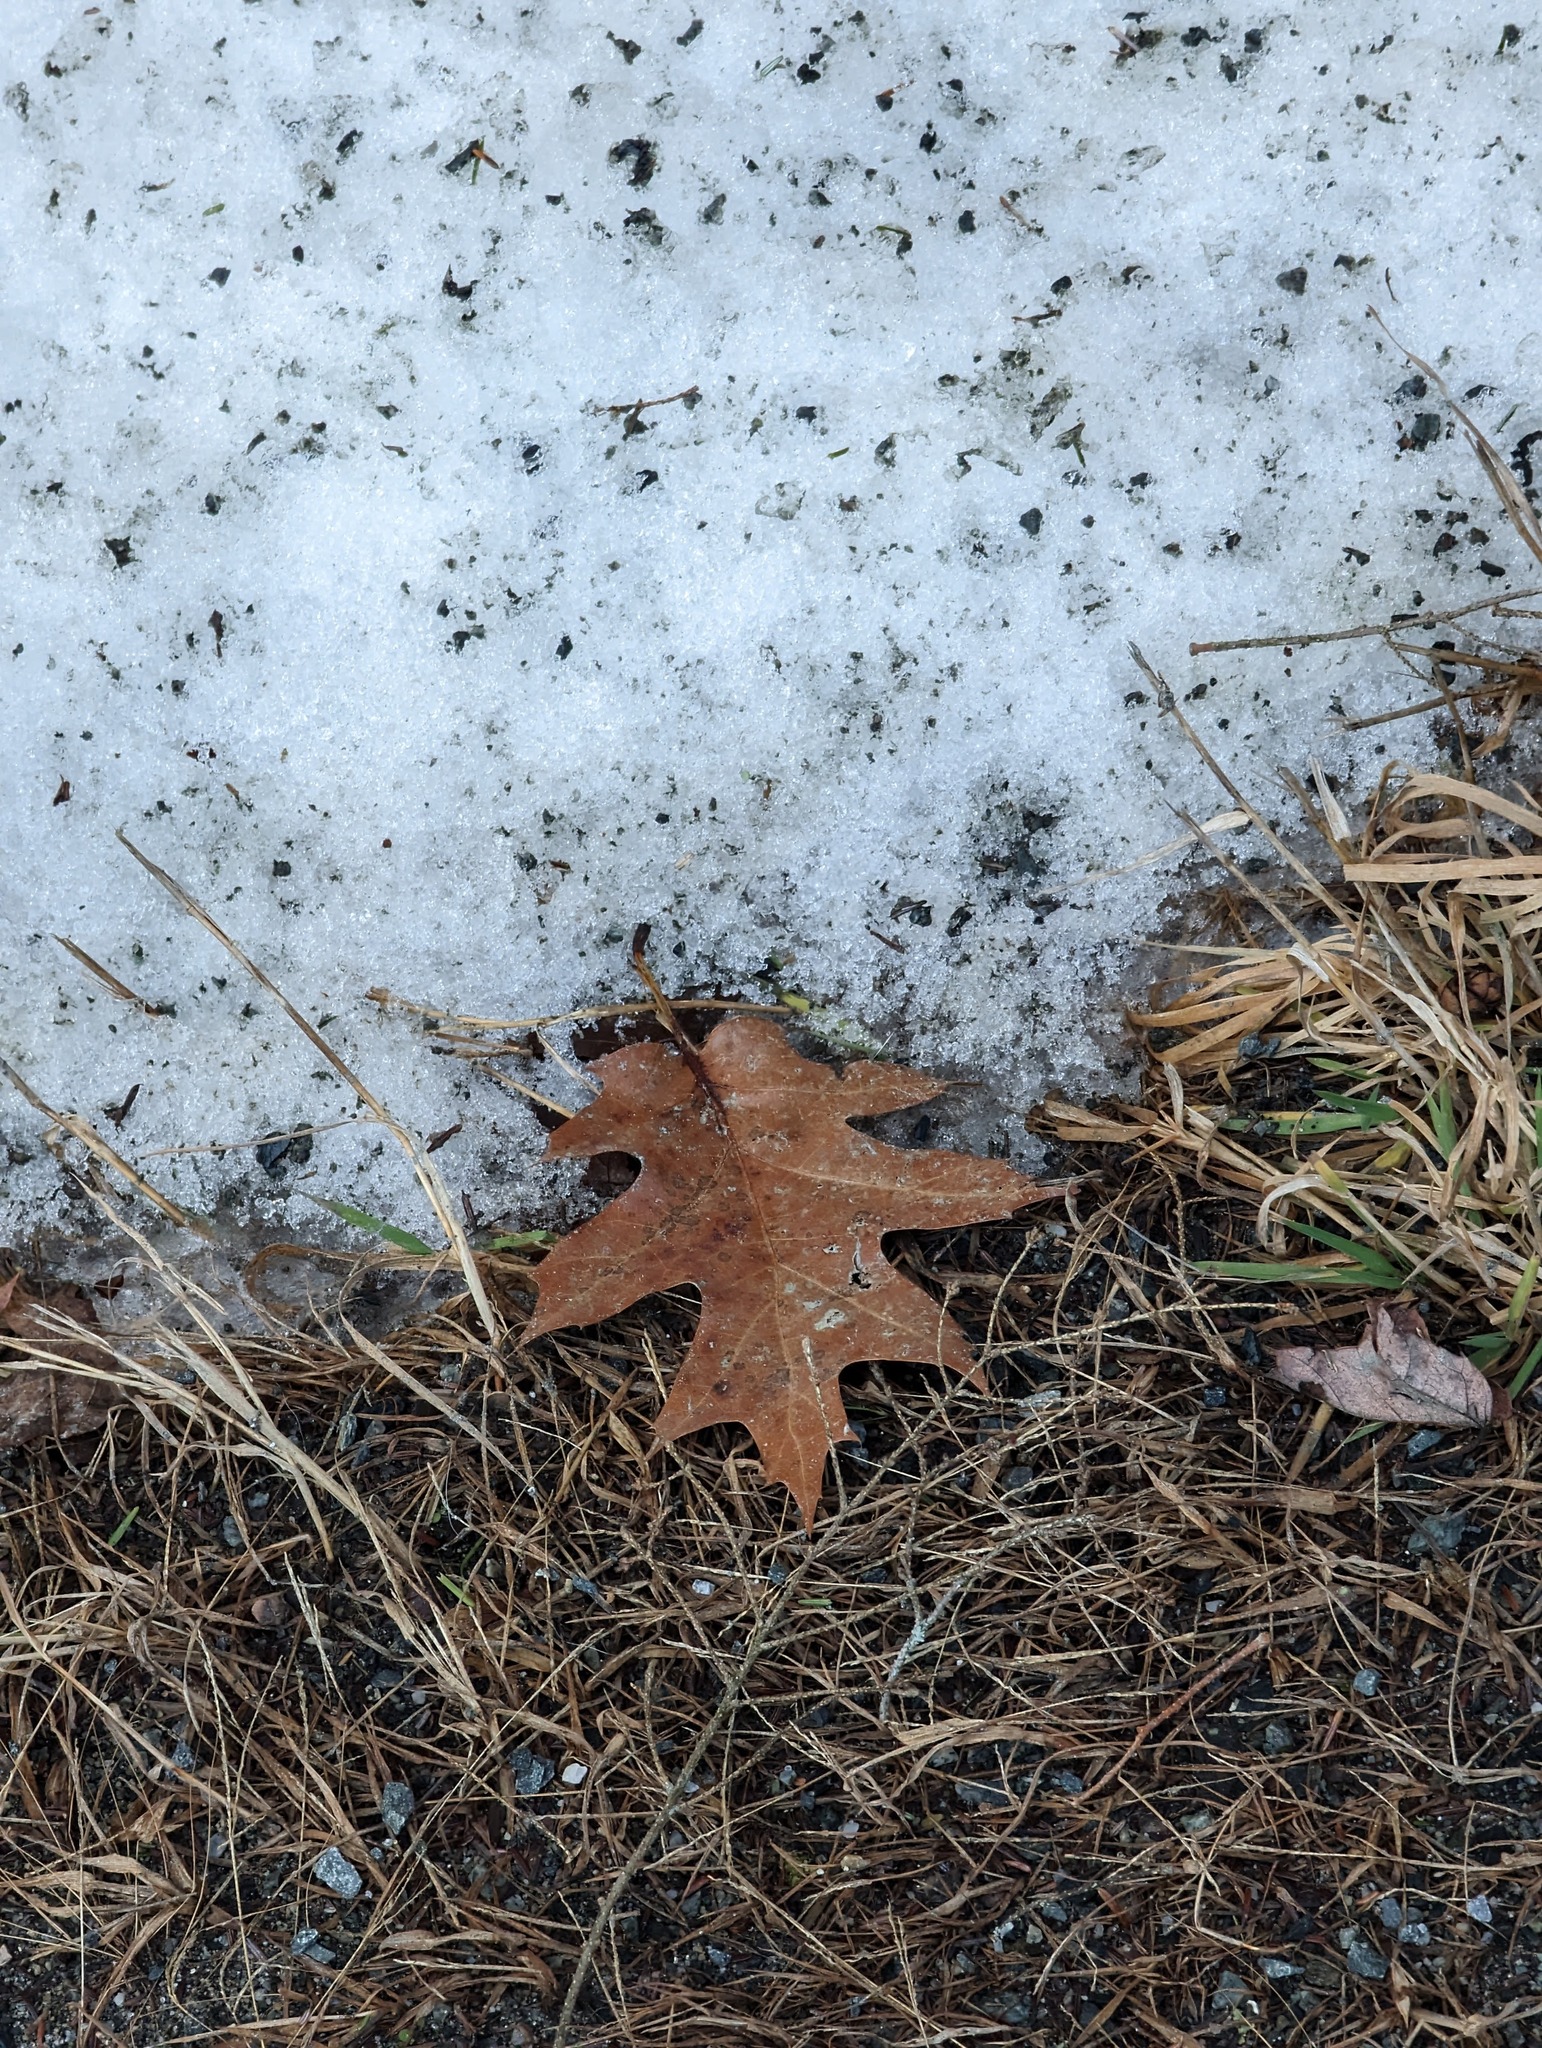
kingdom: Plantae
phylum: Tracheophyta
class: Magnoliopsida
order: Fagales
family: Fagaceae
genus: Quercus
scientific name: Quercus rubra
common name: Red oak
